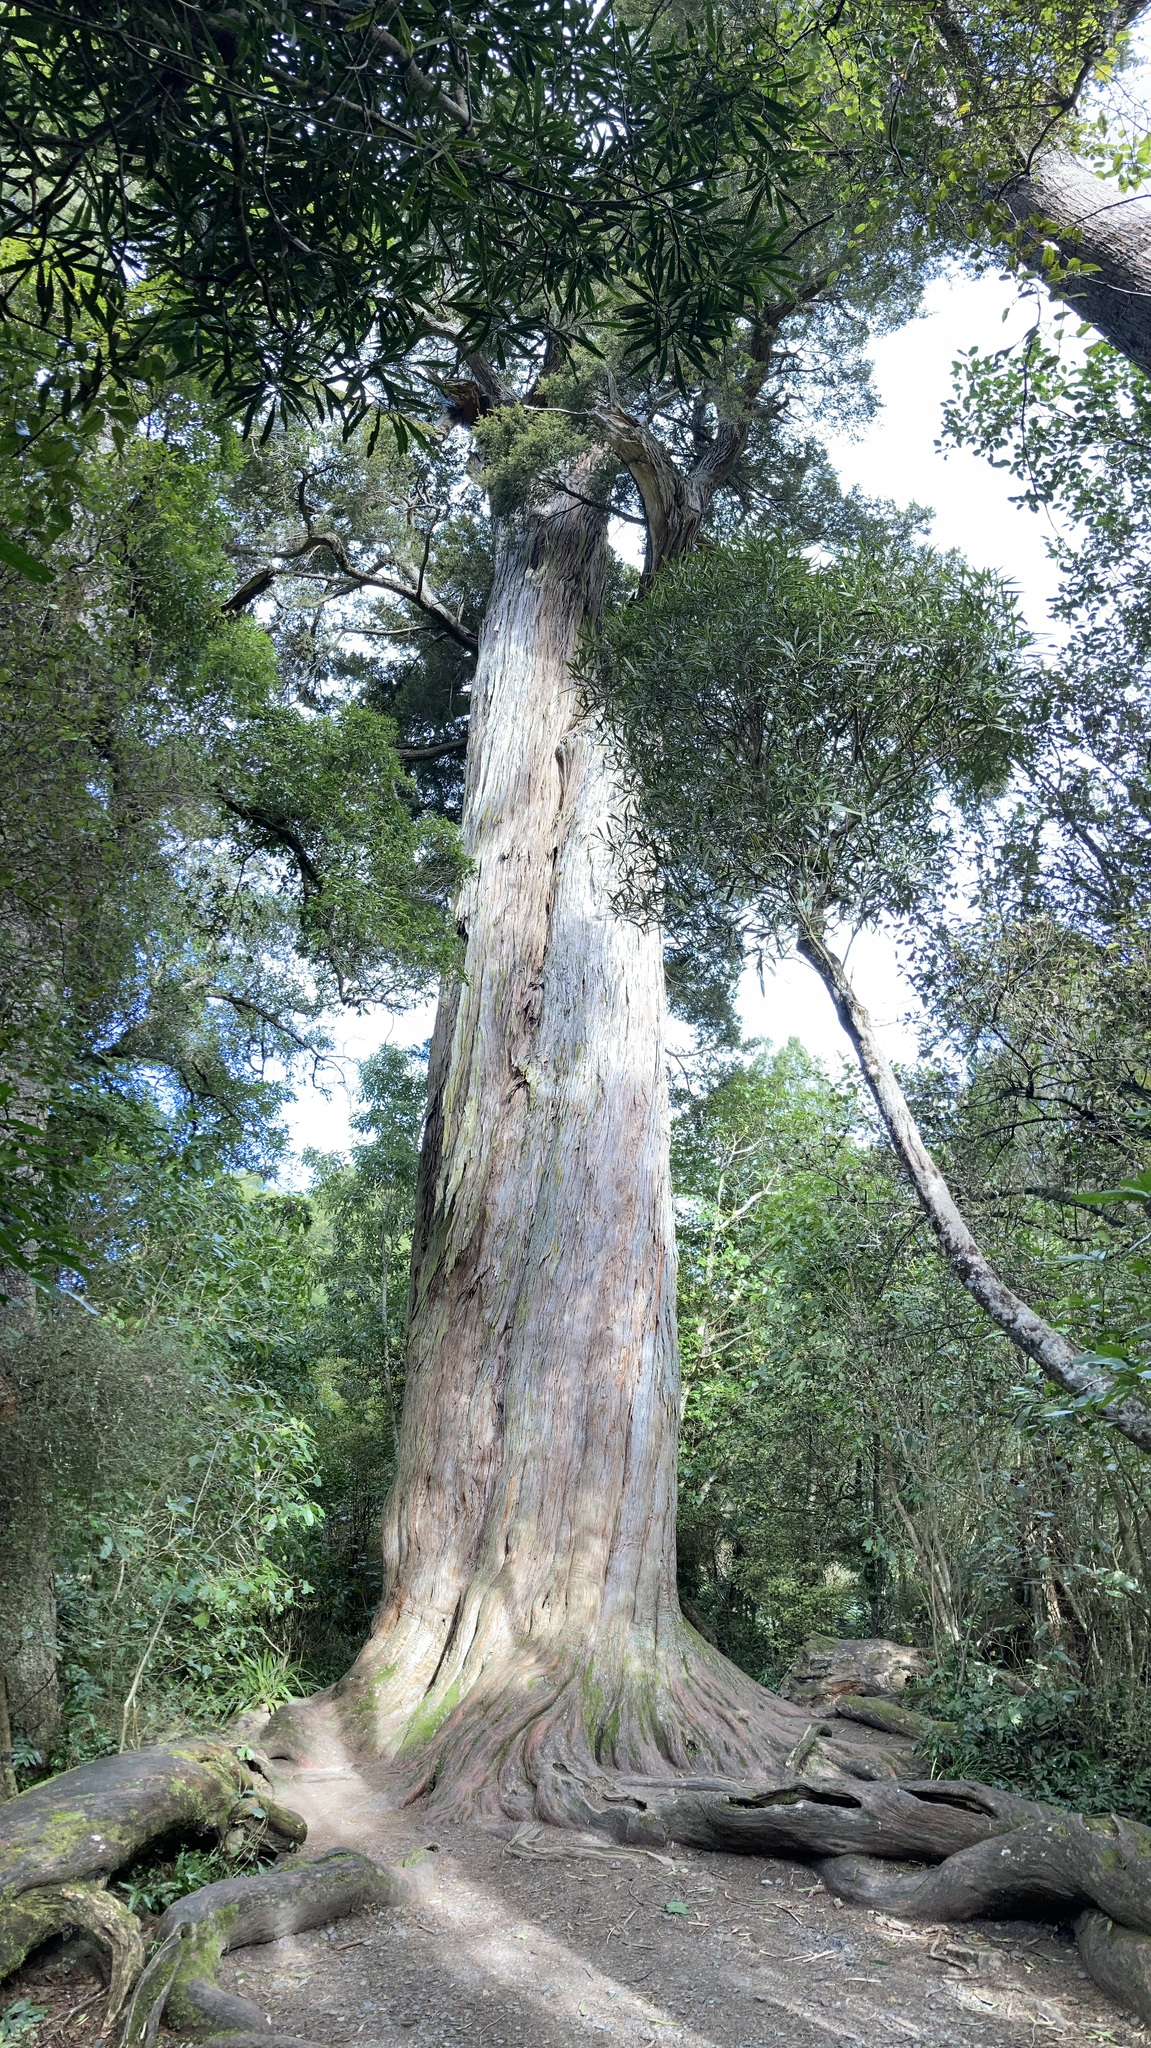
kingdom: Plantae
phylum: Tracheophyta
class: Pinopsida
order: Pinales
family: Podocarpaceae
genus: Podocarpus
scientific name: Podocarpus totara
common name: Totara
